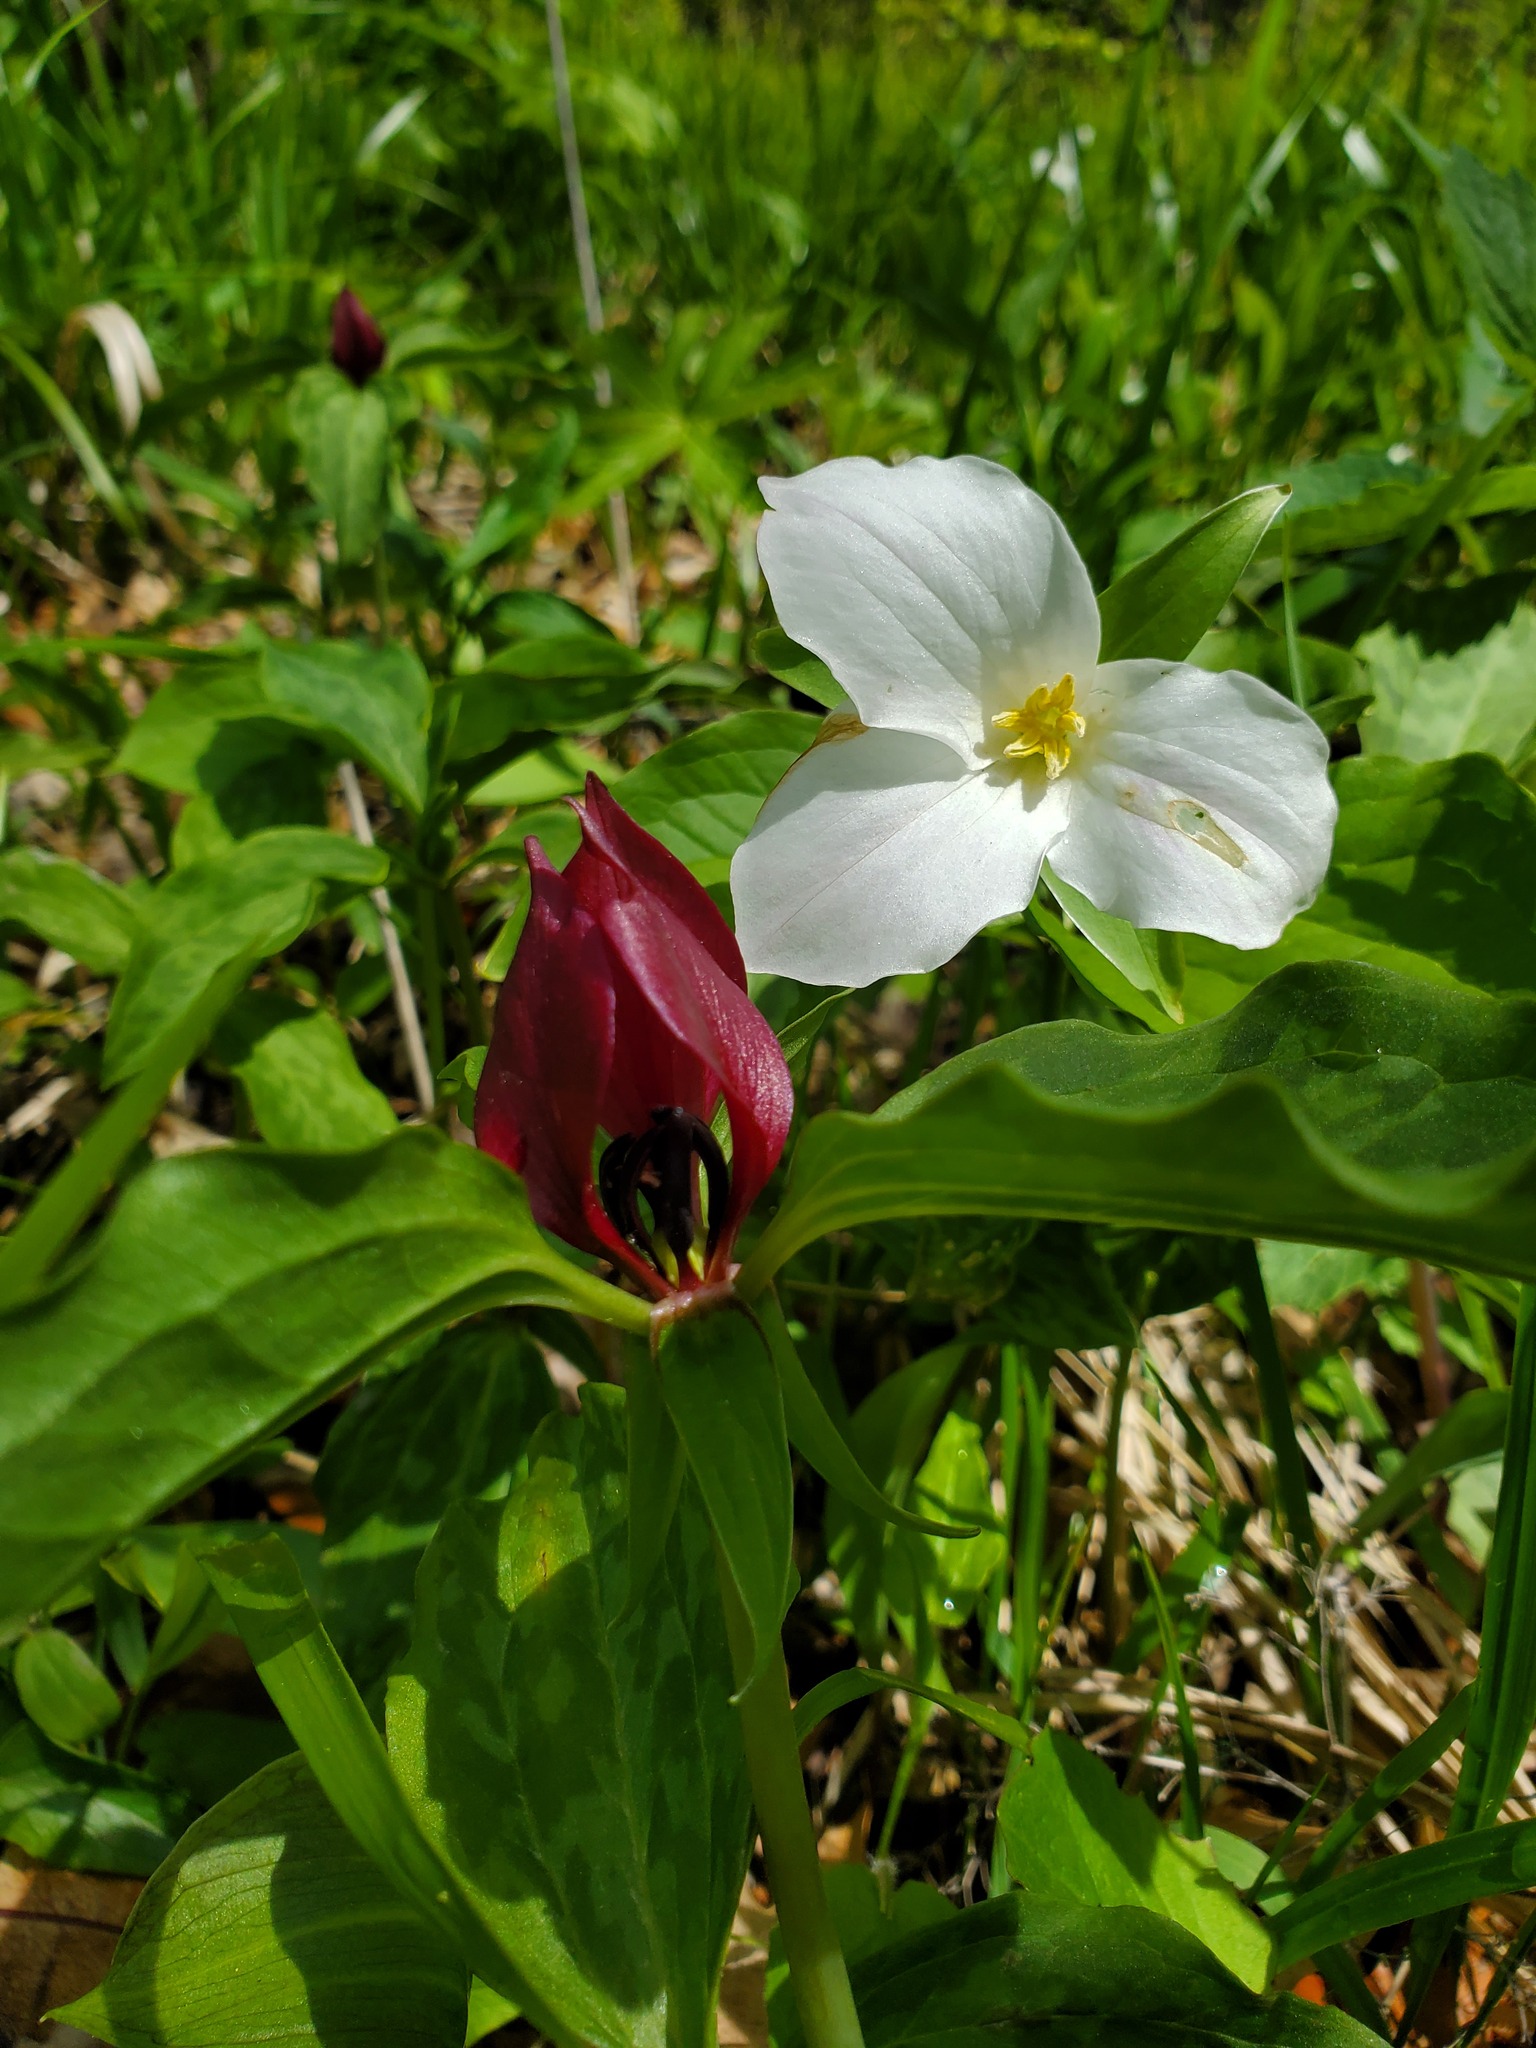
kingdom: Plantae
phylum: Tracheophyta
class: Liliopsida
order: Liliales
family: Melanthiaceae
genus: Trillium
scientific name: Trillium recurvatum
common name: Bloody butcher
